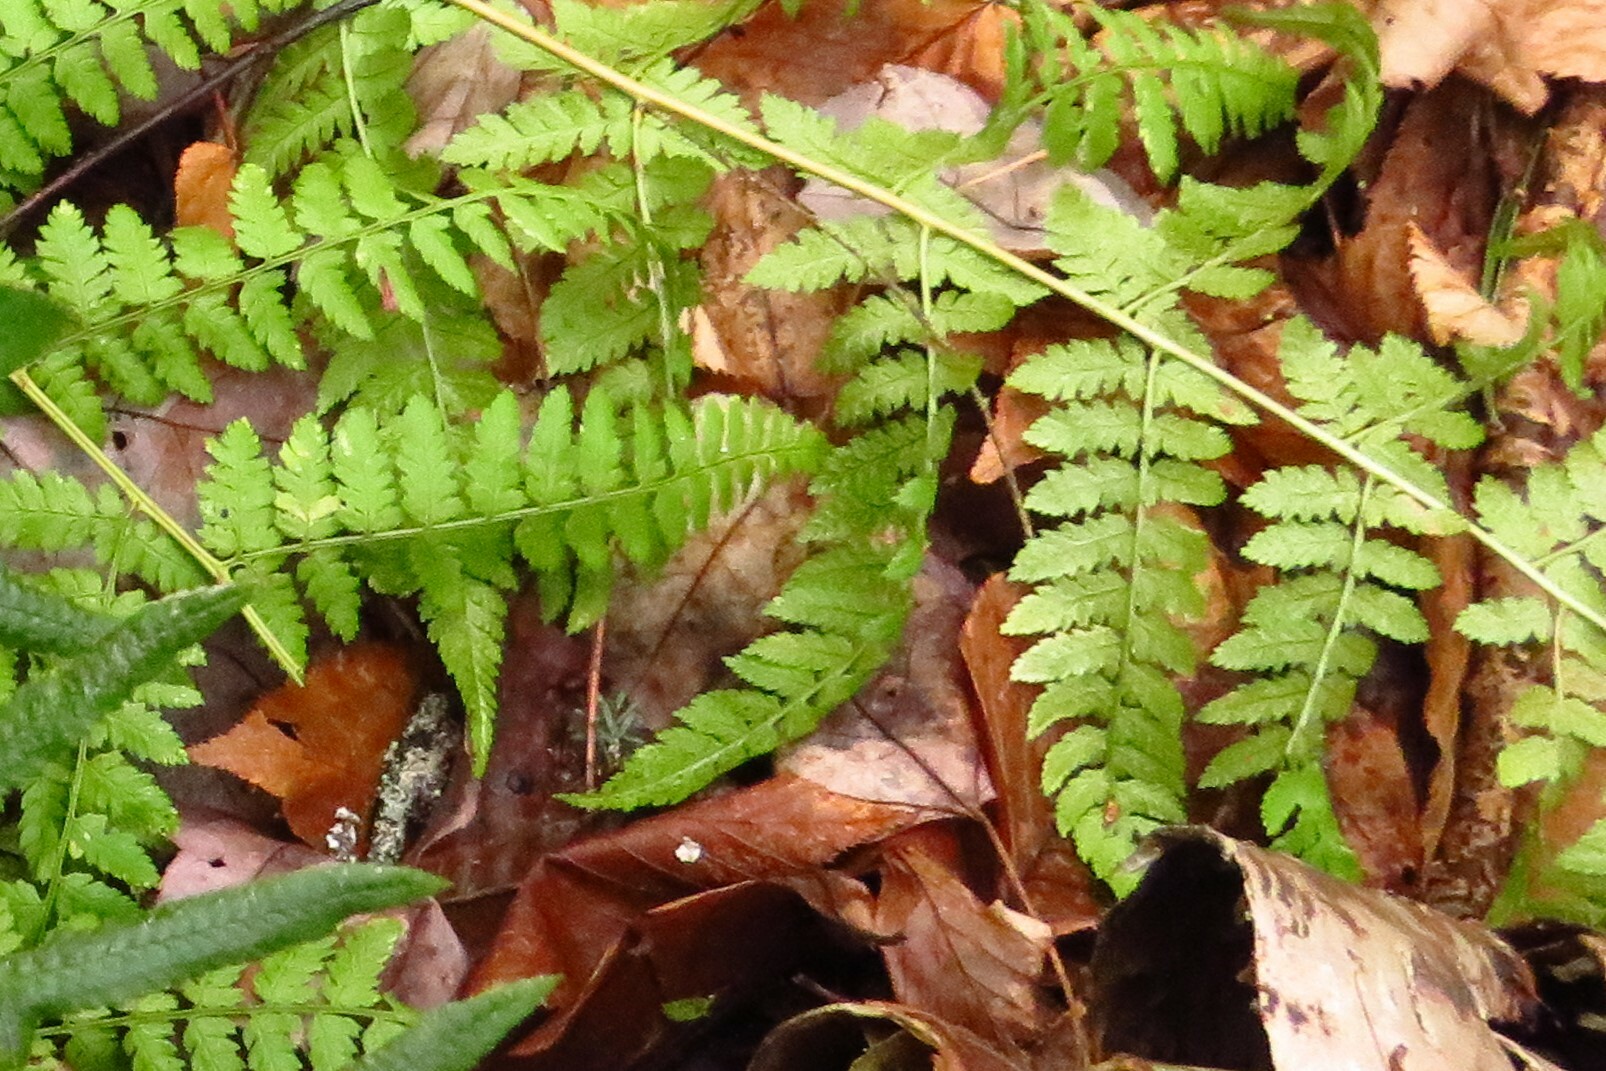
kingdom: Plantae
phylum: Tracheophyta
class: Polypodiopsida
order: Polypodiales
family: Dryopteridaceae
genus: Dryopteris
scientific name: Dryopteris carthusiana
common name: Narrow buckler-fern
